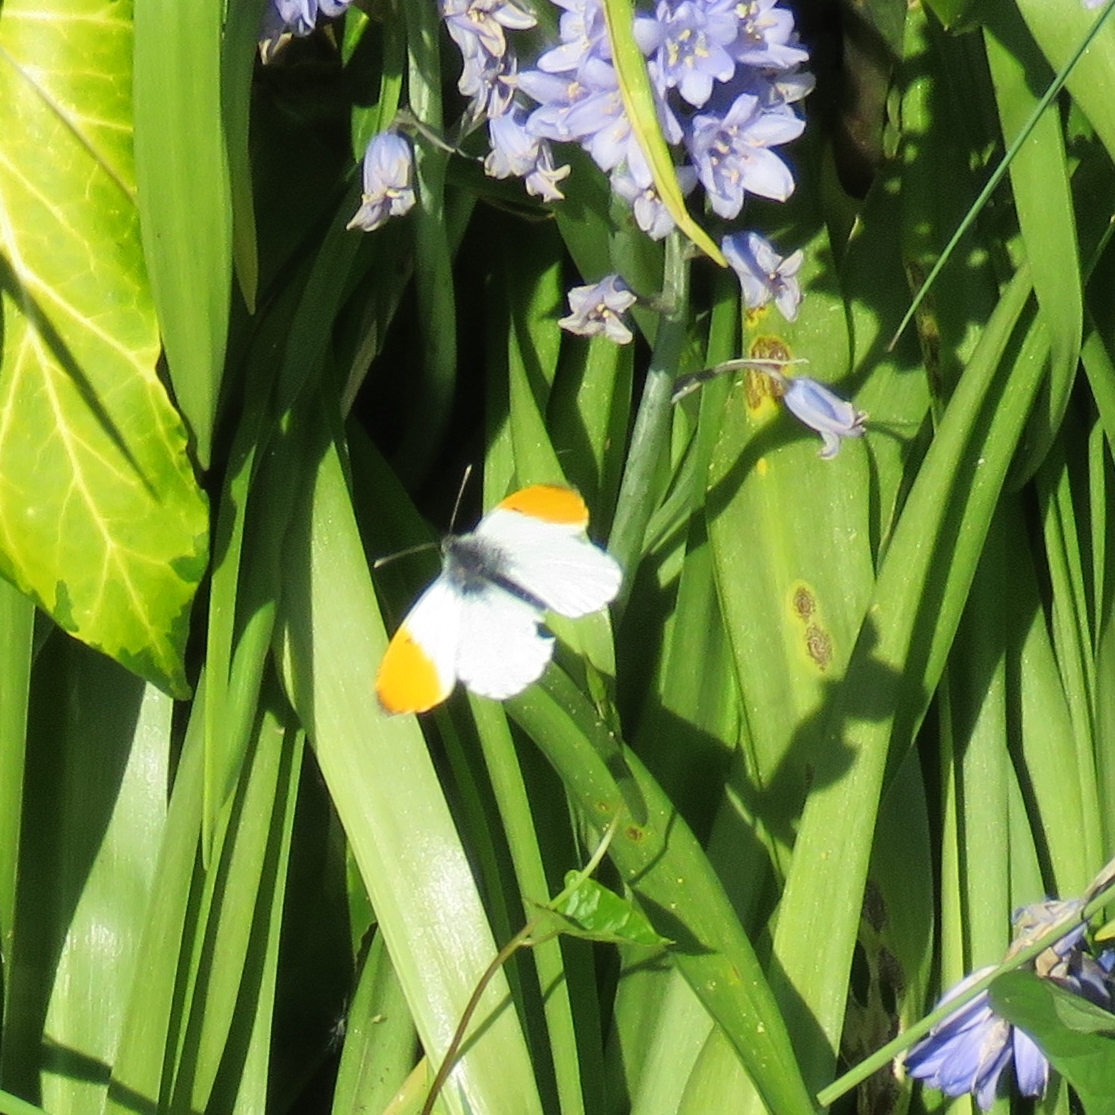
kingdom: Animalia
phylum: Arthropoda
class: Insecta
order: Lepidoptera
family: Pieridae
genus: Anthocharis
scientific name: Anthocharis cardamines
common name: Orange-tip
